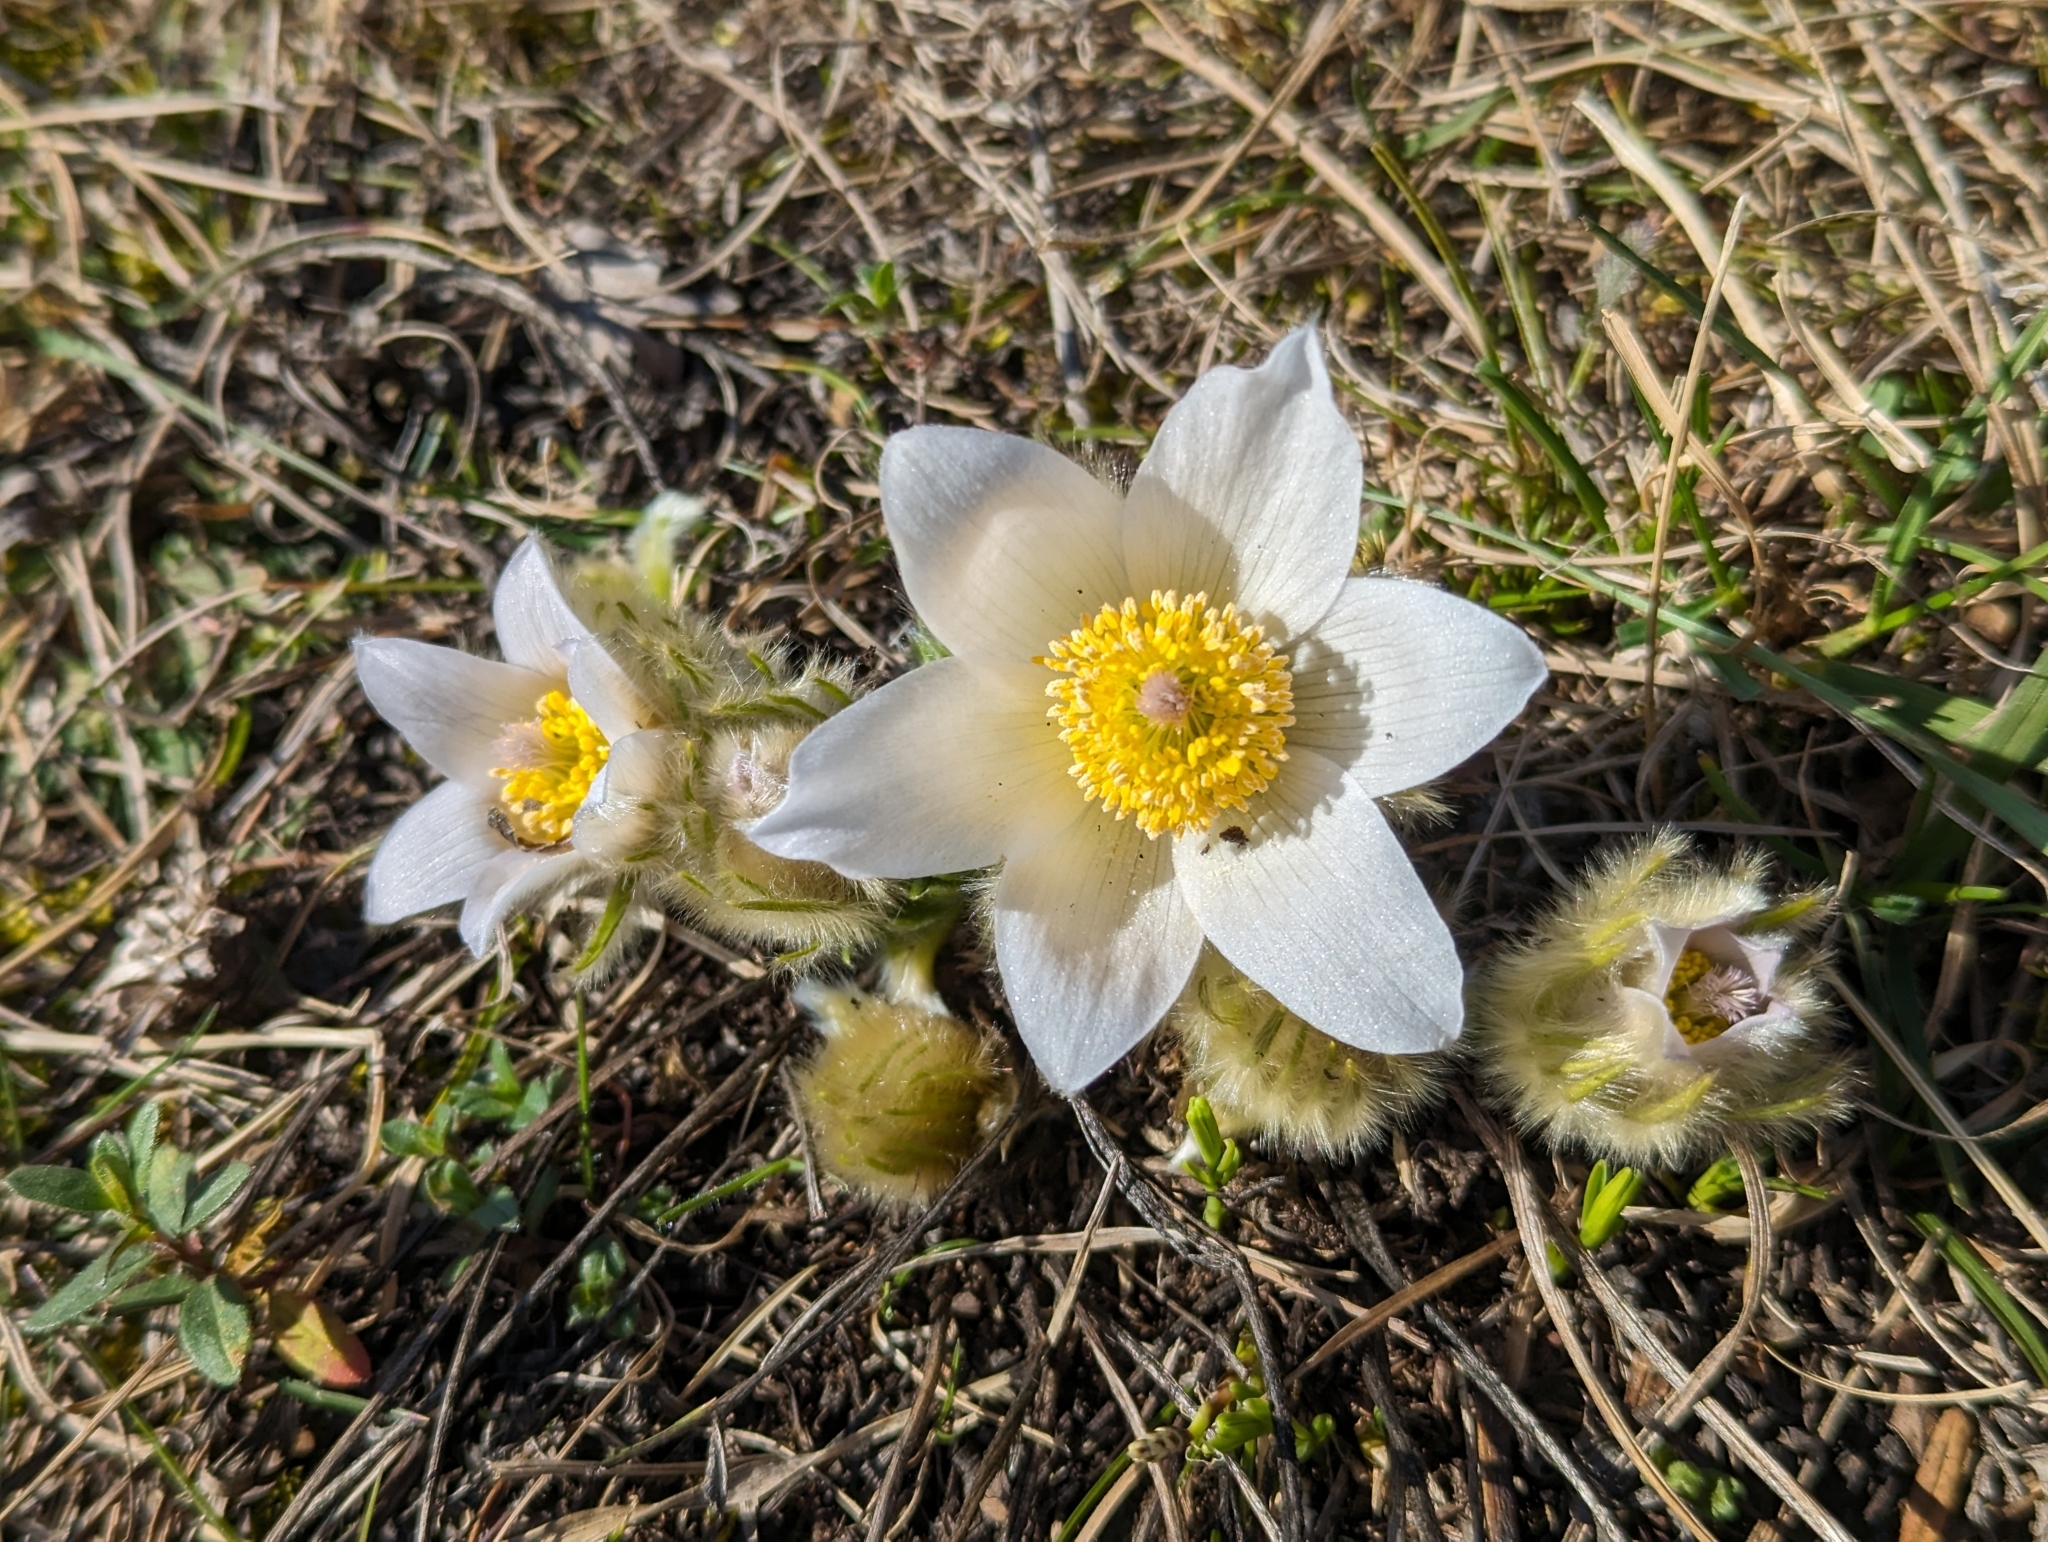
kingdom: Plantae
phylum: Tracheophyta
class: Magnoliopsida
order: Ranunculales
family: Ranunculaceae
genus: Pulsatilla
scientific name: Pulsatilla grandis
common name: Greater pasque flower
